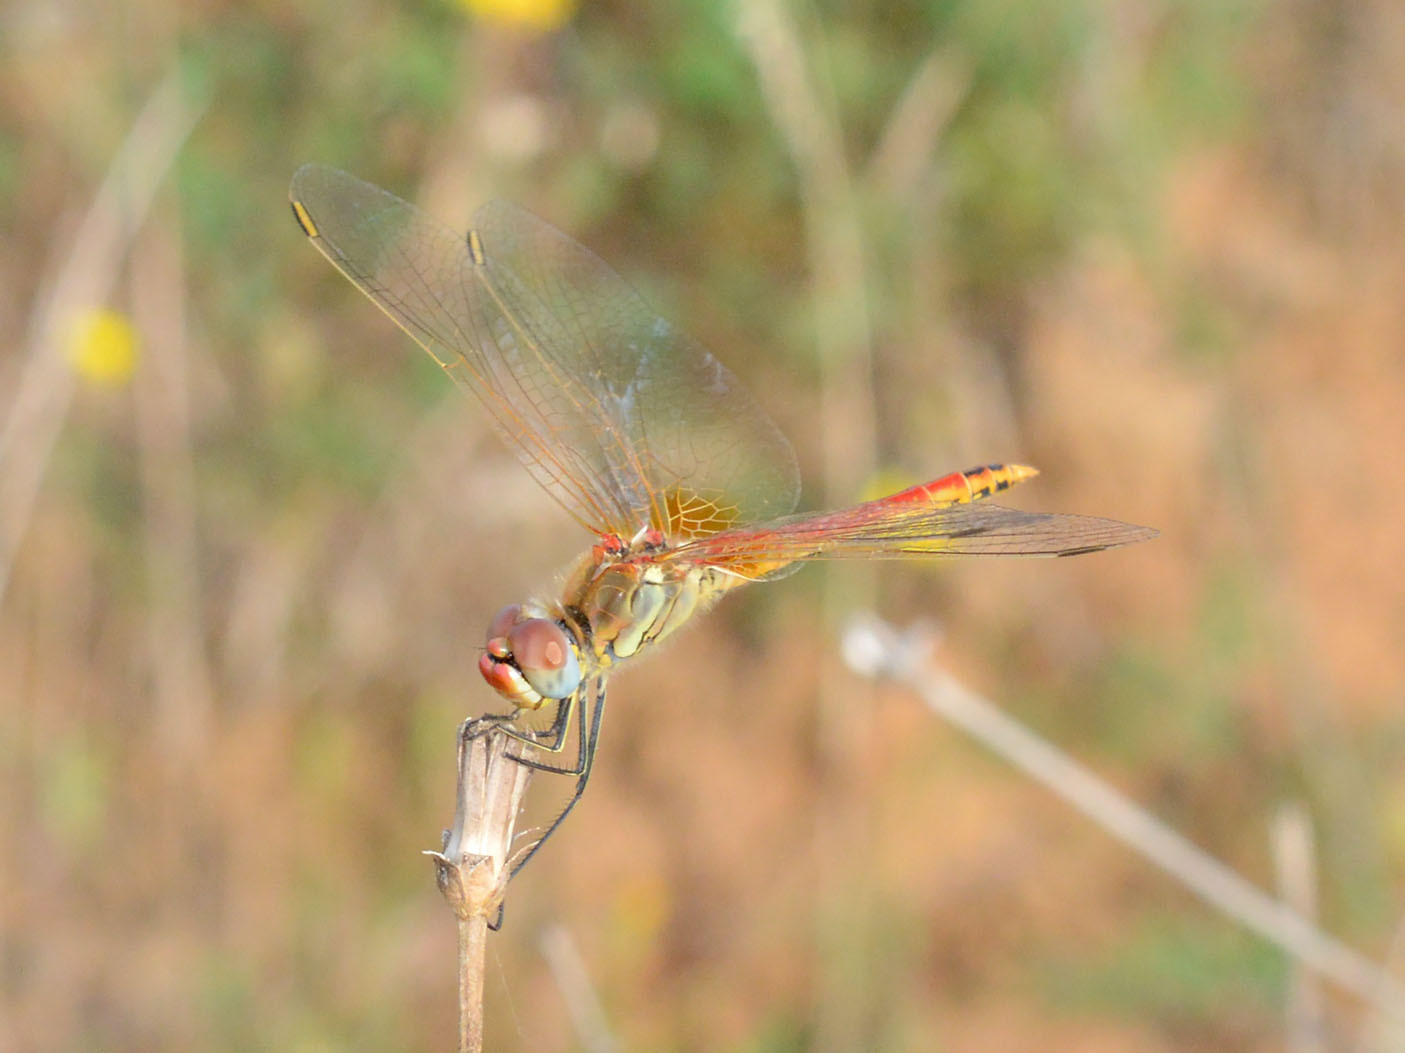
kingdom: Animalia
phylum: Arthropoda
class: Insecta
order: Odonata
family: Libellulidae
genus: Sympetrum
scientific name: Sympetrum fonscolombii
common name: Red-veined darter
